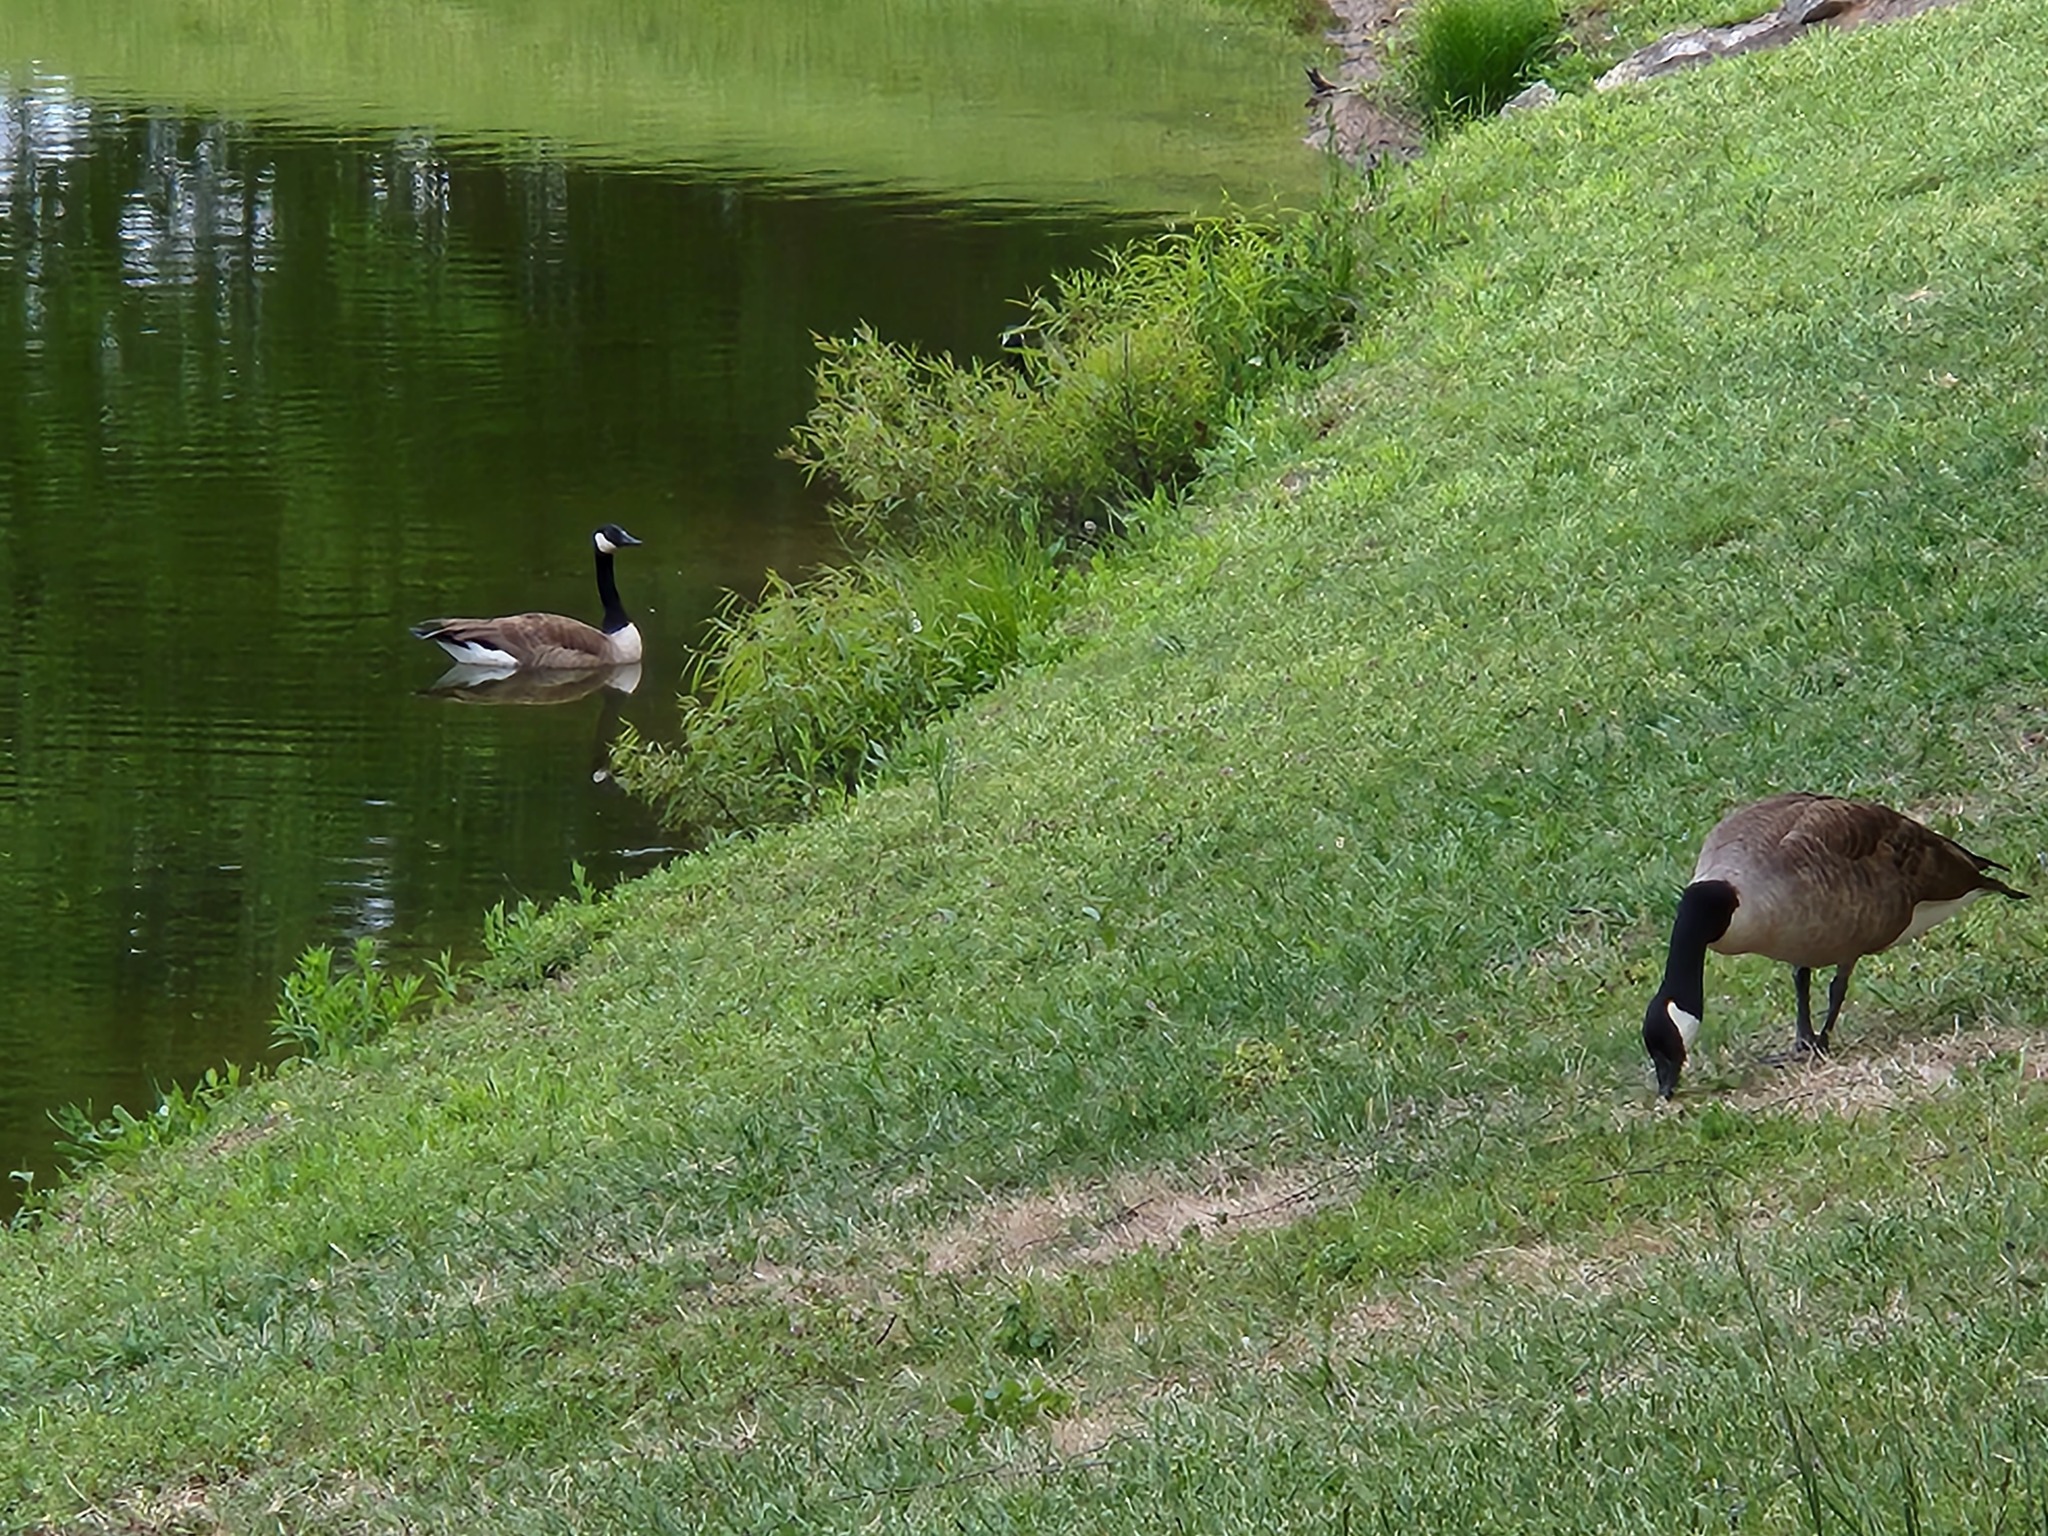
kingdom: Animalia
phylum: Chordata
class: Aves
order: Anseriformes
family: Anatidae
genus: Branta
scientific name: Branta canadensis
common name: Canada goose
